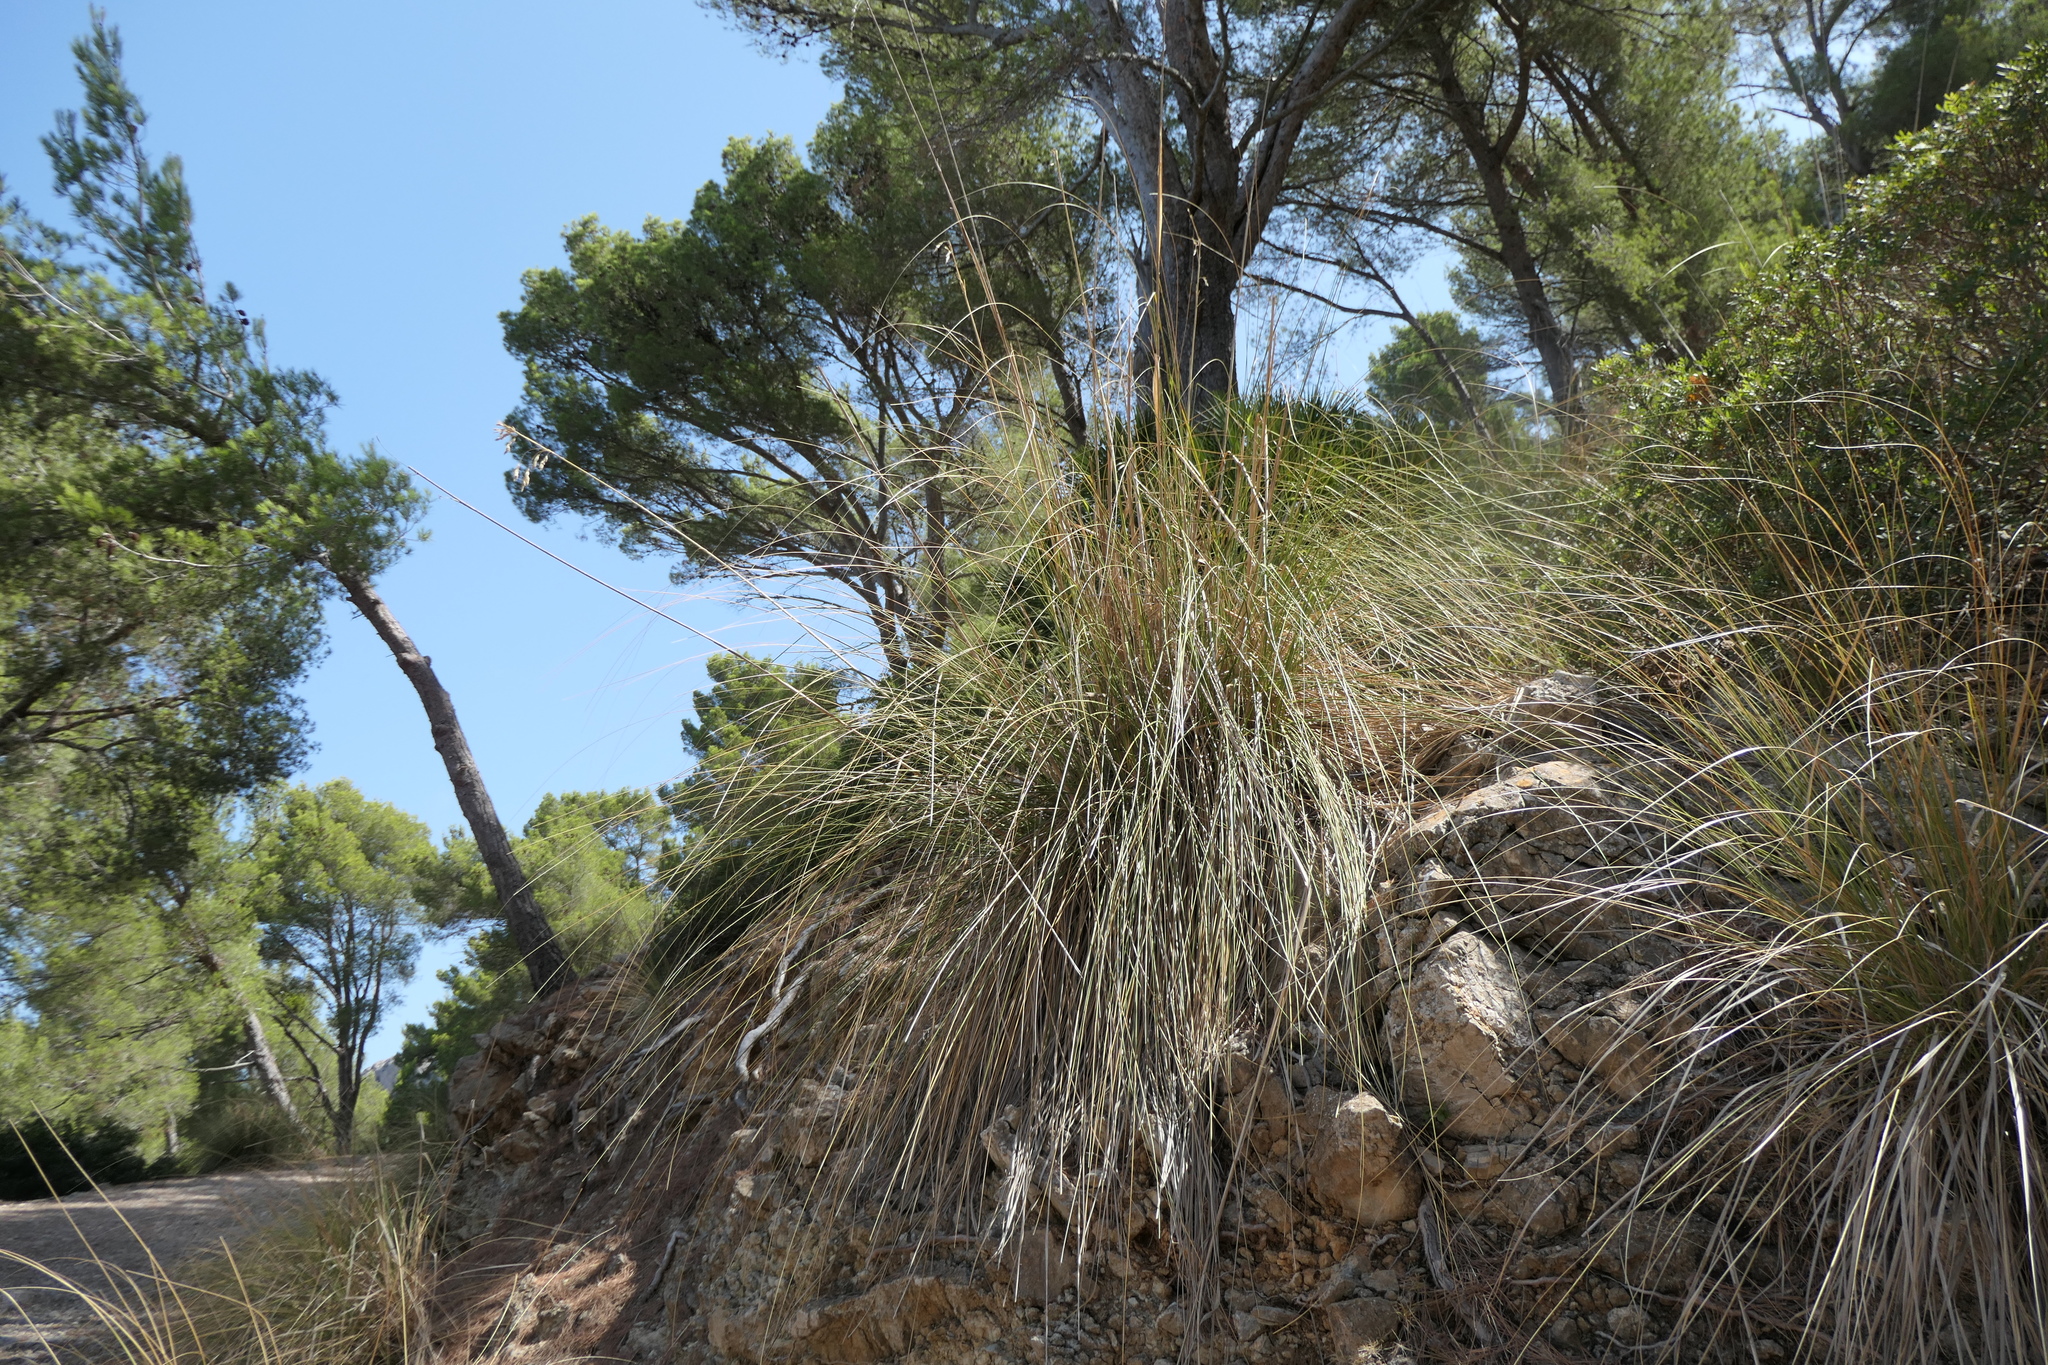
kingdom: Plantae
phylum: Tracheophyta
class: Liliopsida
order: Poales
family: Poaceae
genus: Ampelodesmos
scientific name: Ampelodesmos mauritanicus
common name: Mauritanian grass
